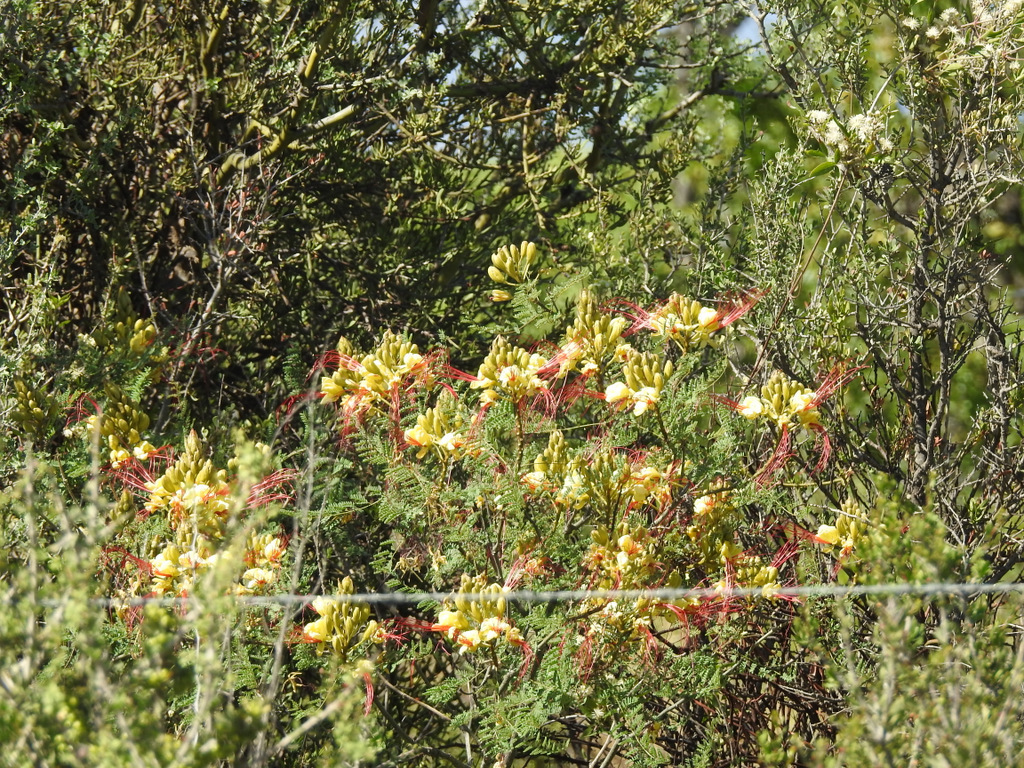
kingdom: Plantae
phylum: Tracheophyta
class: Magnoliopsida
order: Fabales
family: Fabaceae
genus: Erythrostemon
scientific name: Erythrostemon gilliesii
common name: Bird-of-paradise shrub
